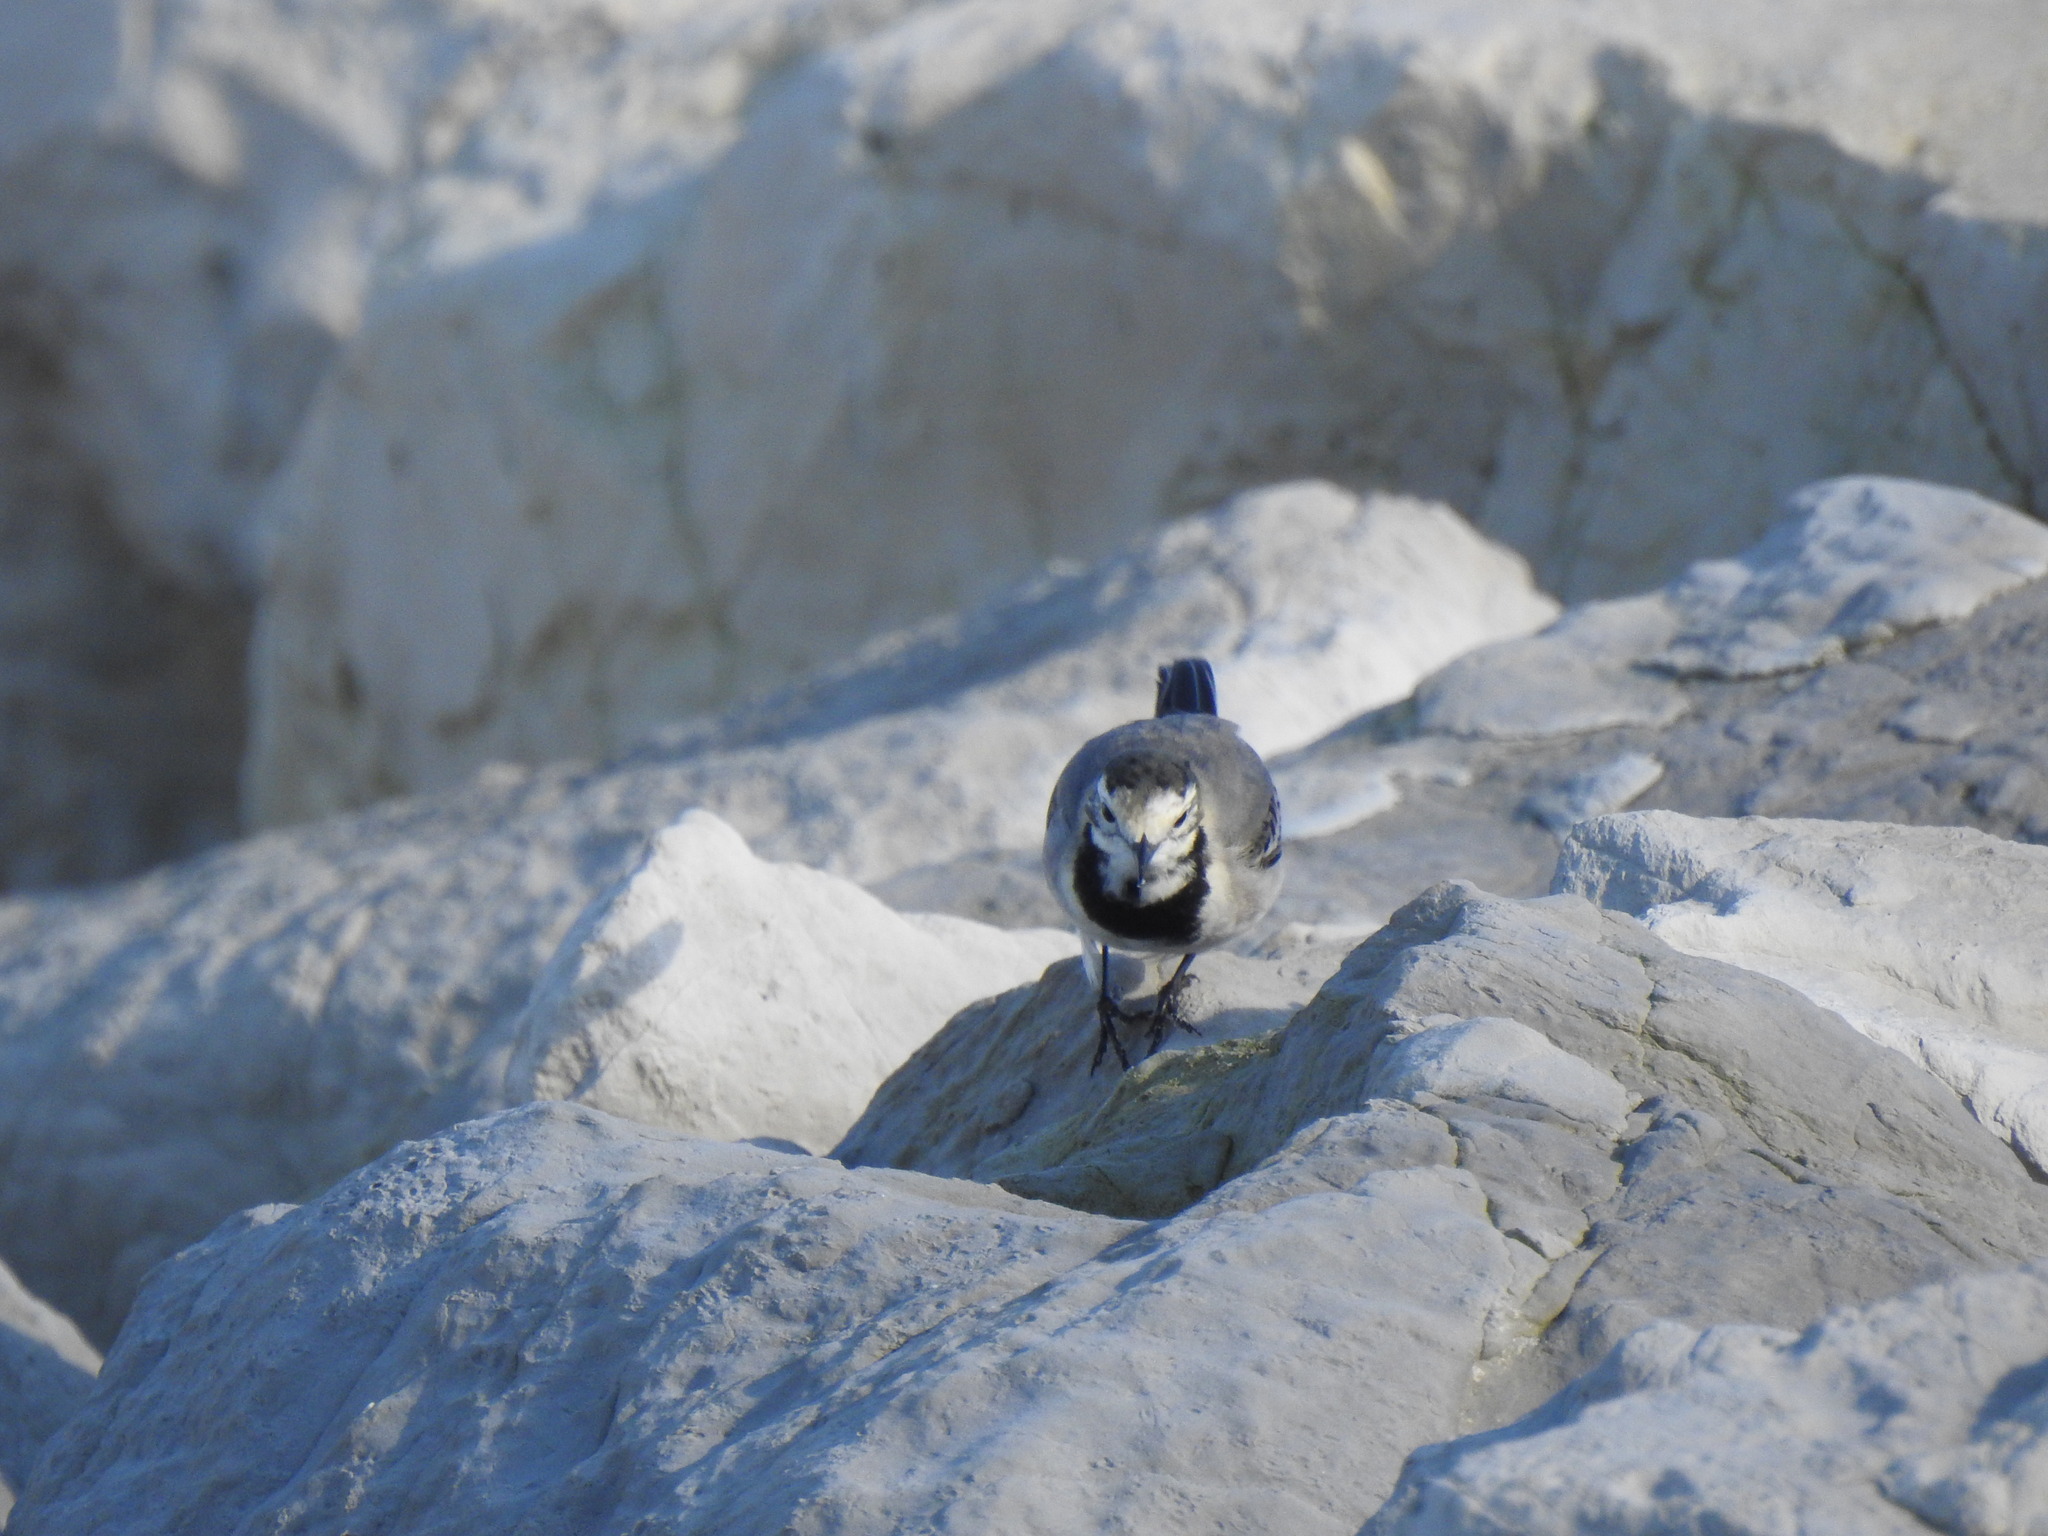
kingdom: Animalia
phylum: Chordata
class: Aves
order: Passeriformes
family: Motacillidae
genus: Motacilla
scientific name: Motacilla alba
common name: White wagtail
